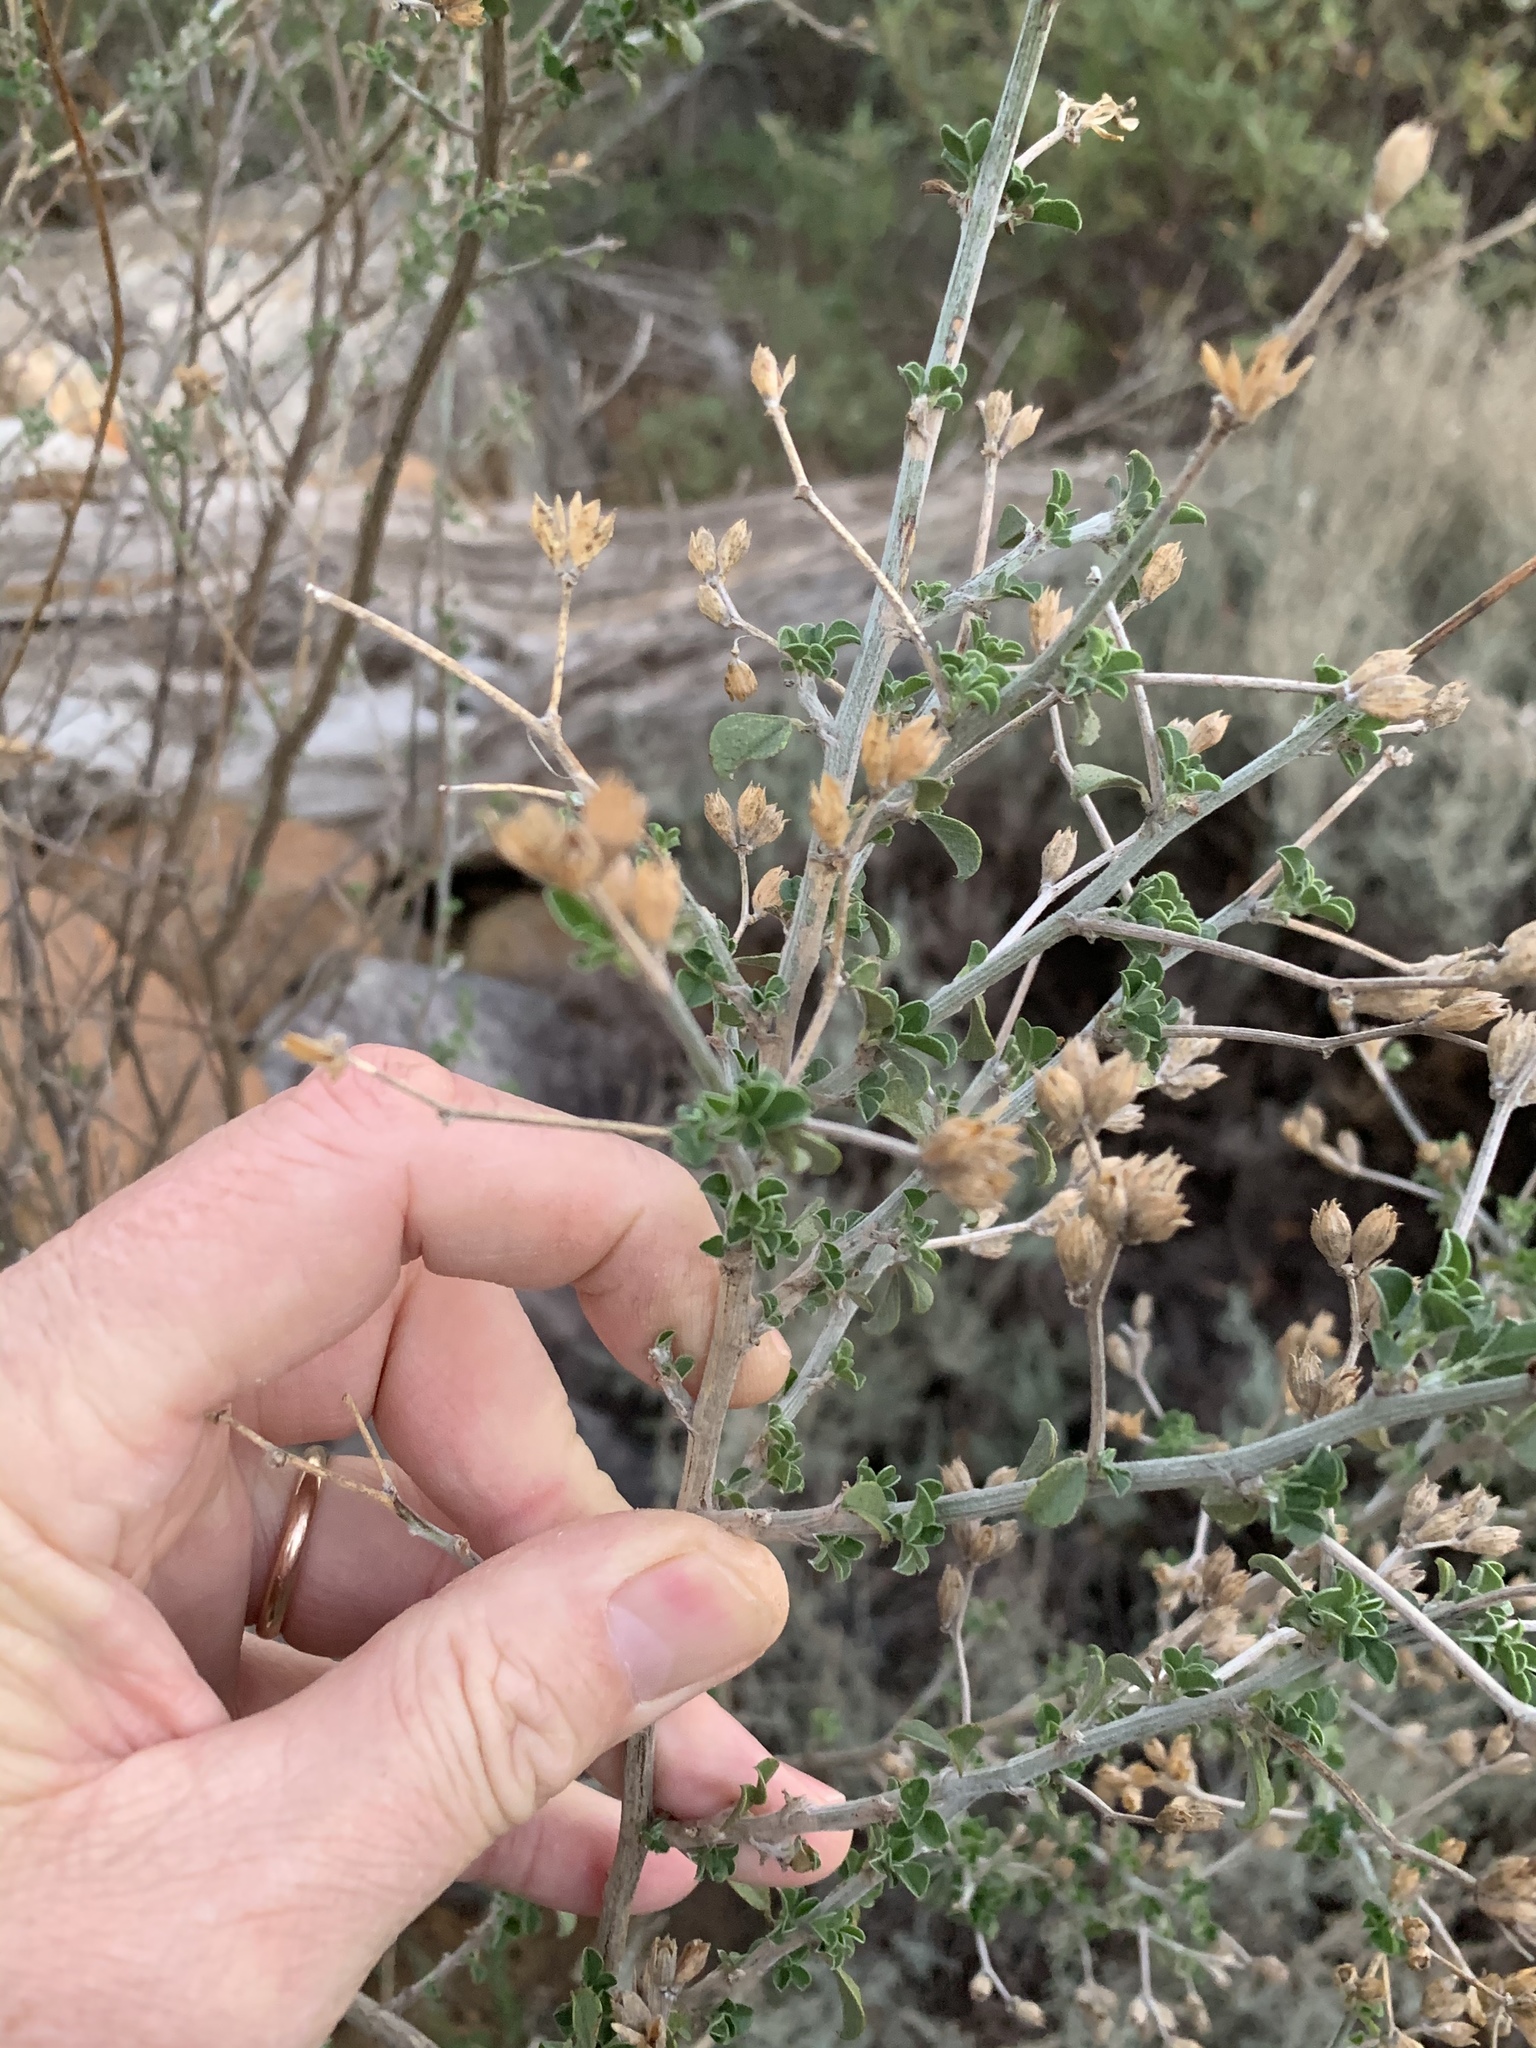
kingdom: Plantae
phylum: Tracheophyta
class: Magnoliopsida
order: Fabales
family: Fabaceae
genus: Psoralea
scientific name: Psoralea hirta
